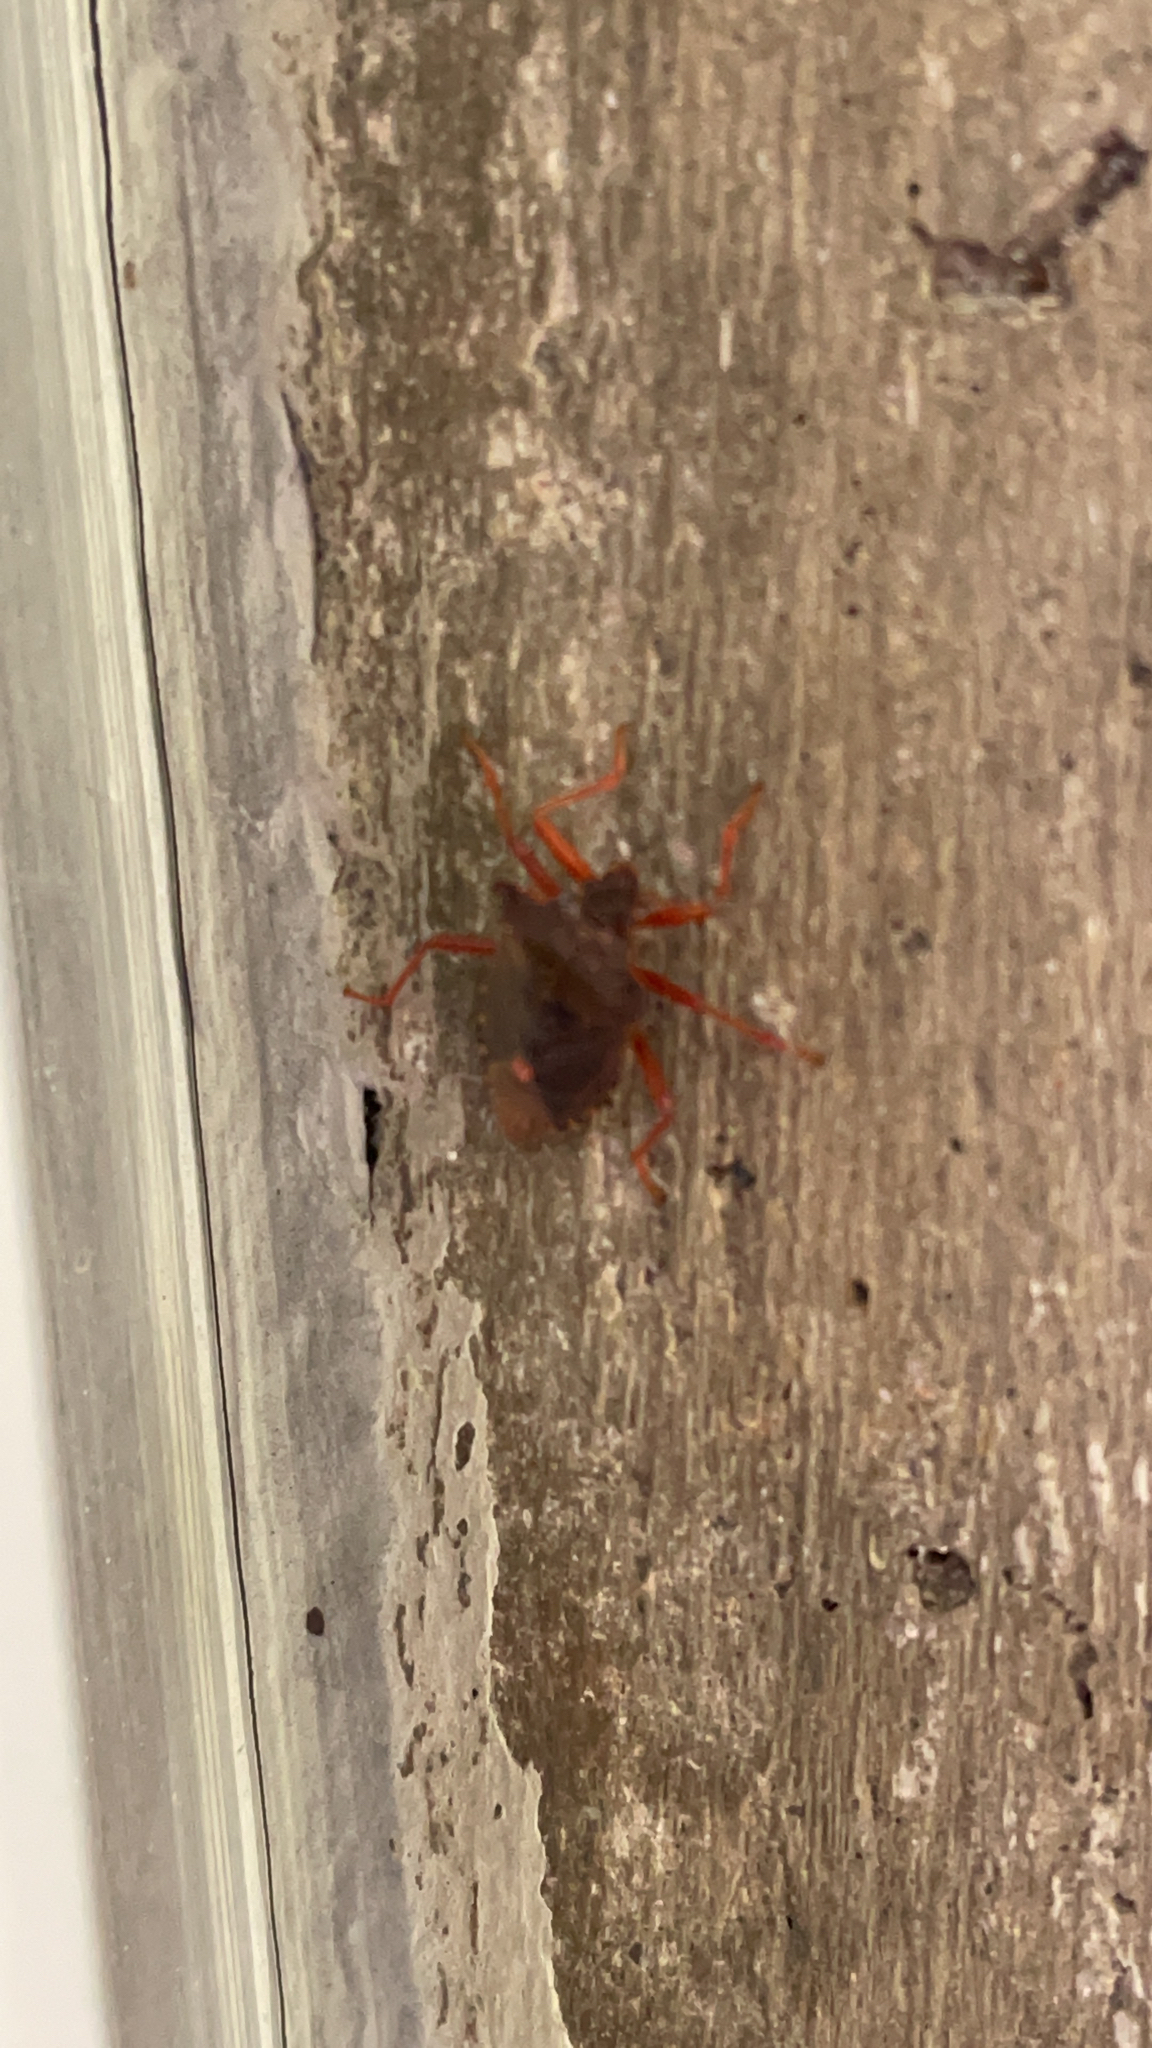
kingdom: Animalia
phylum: Arthropoda
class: Insecta
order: Hemiptera
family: Pentatomidae
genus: Pentatoma
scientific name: Pentatoma rufipes
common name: Forest bug
